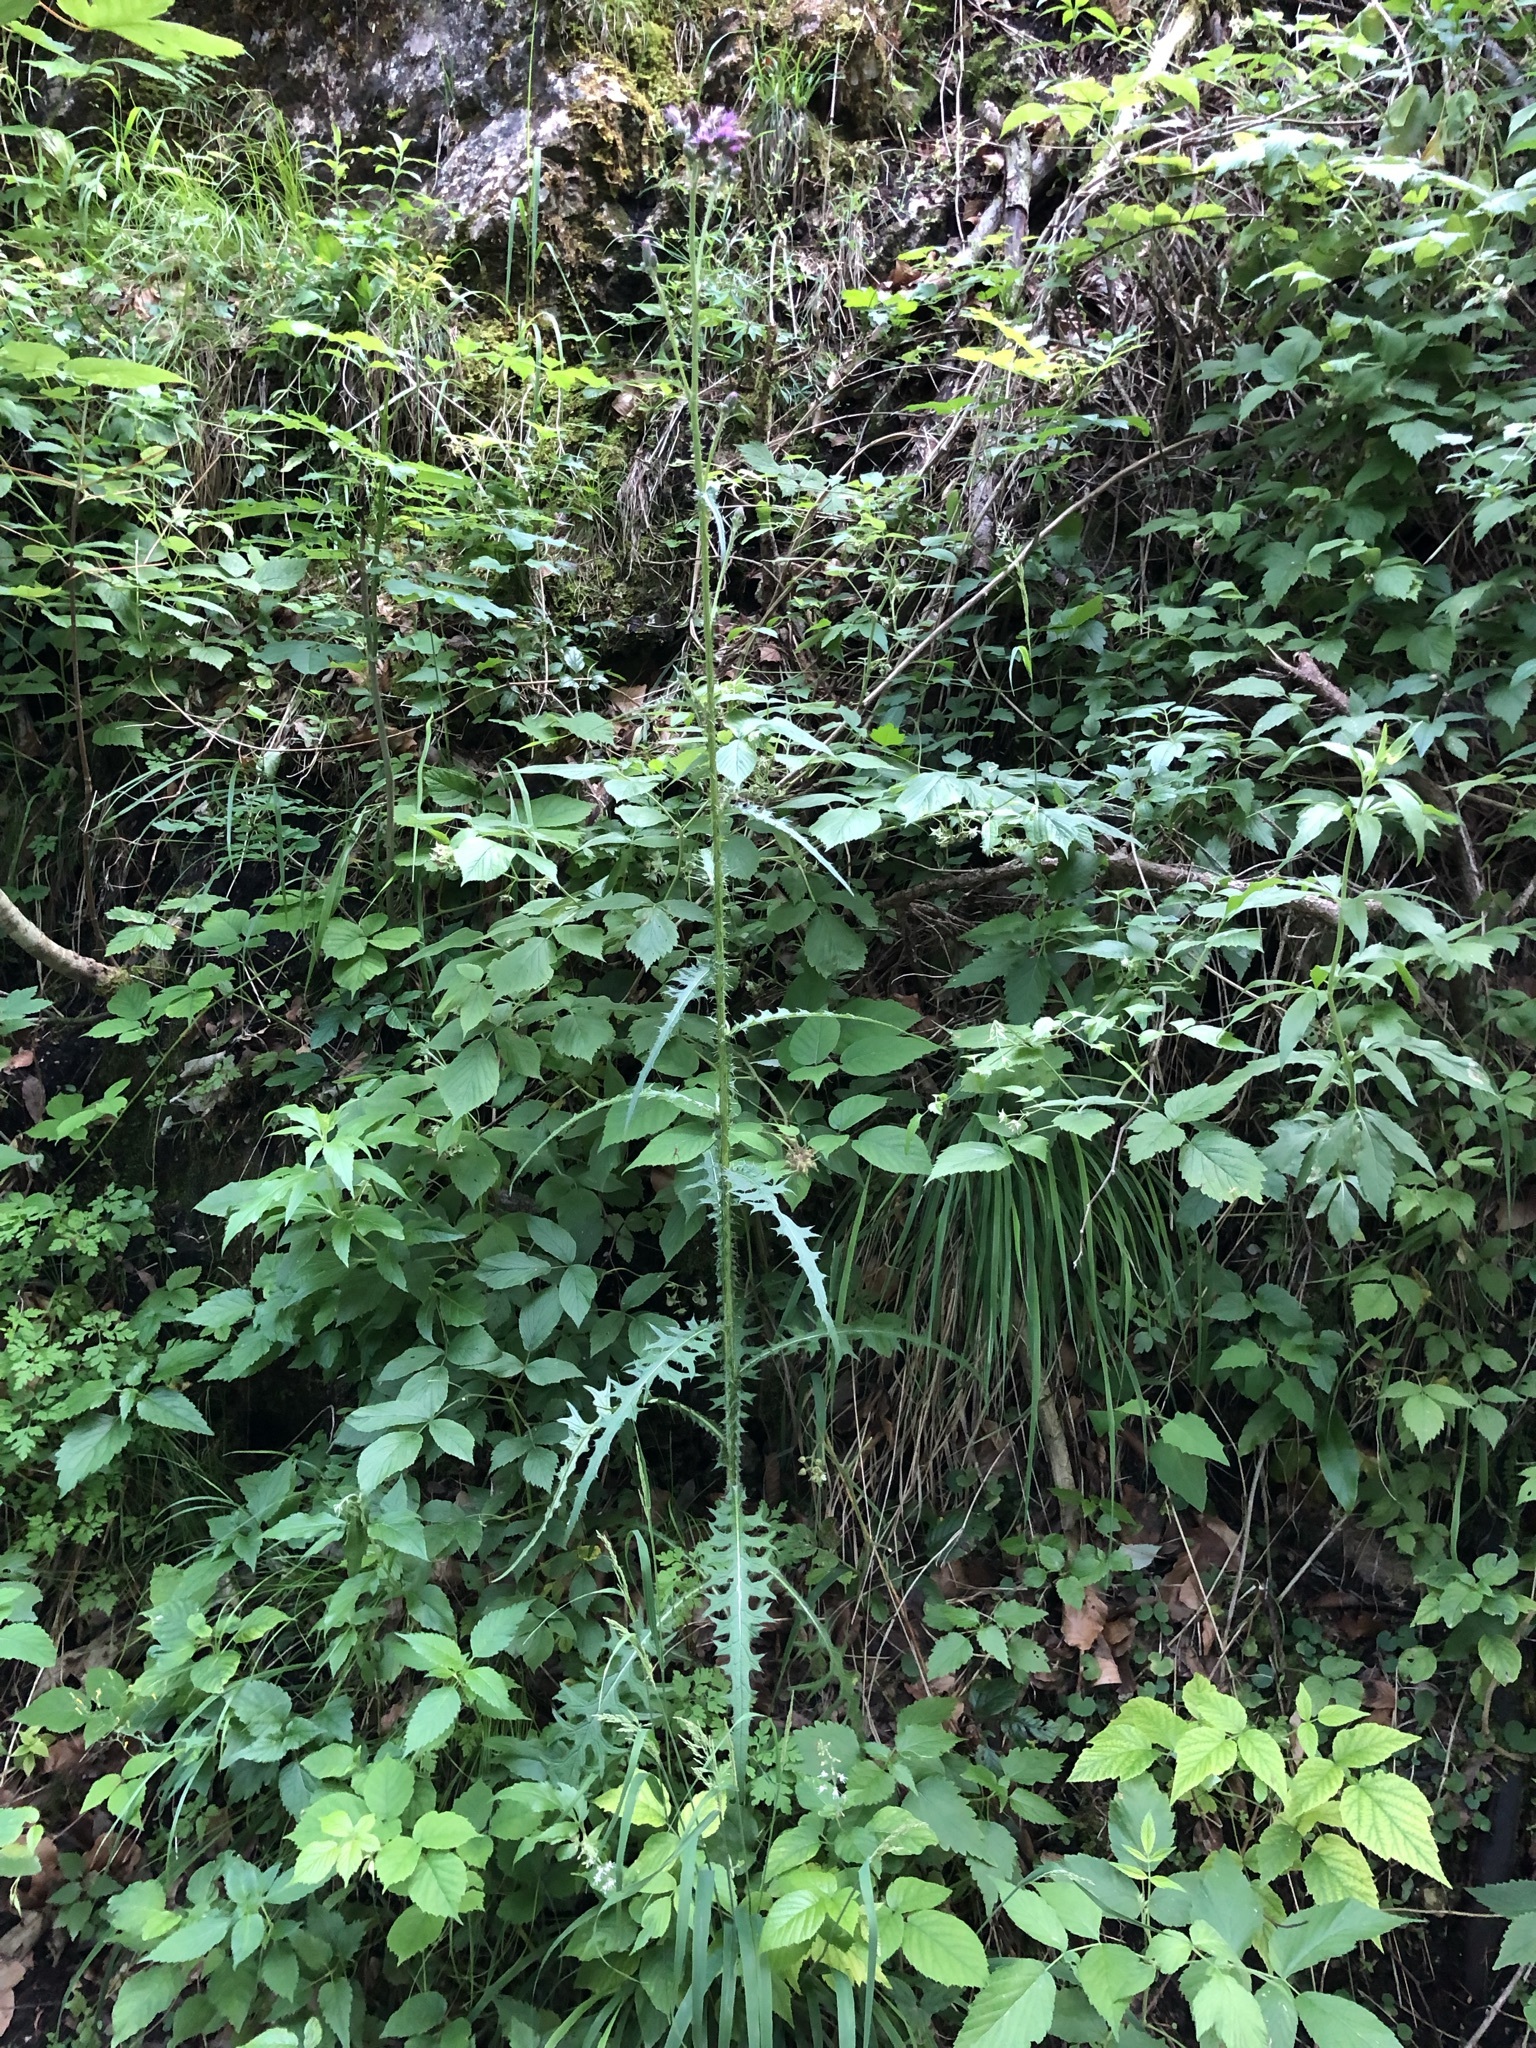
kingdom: Plantae
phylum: Tracheophyta
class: Magnoliopsida
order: Asterales
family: Asteraceae
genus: Cirsium
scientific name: Cirsium palustre
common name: Marsh thistle
